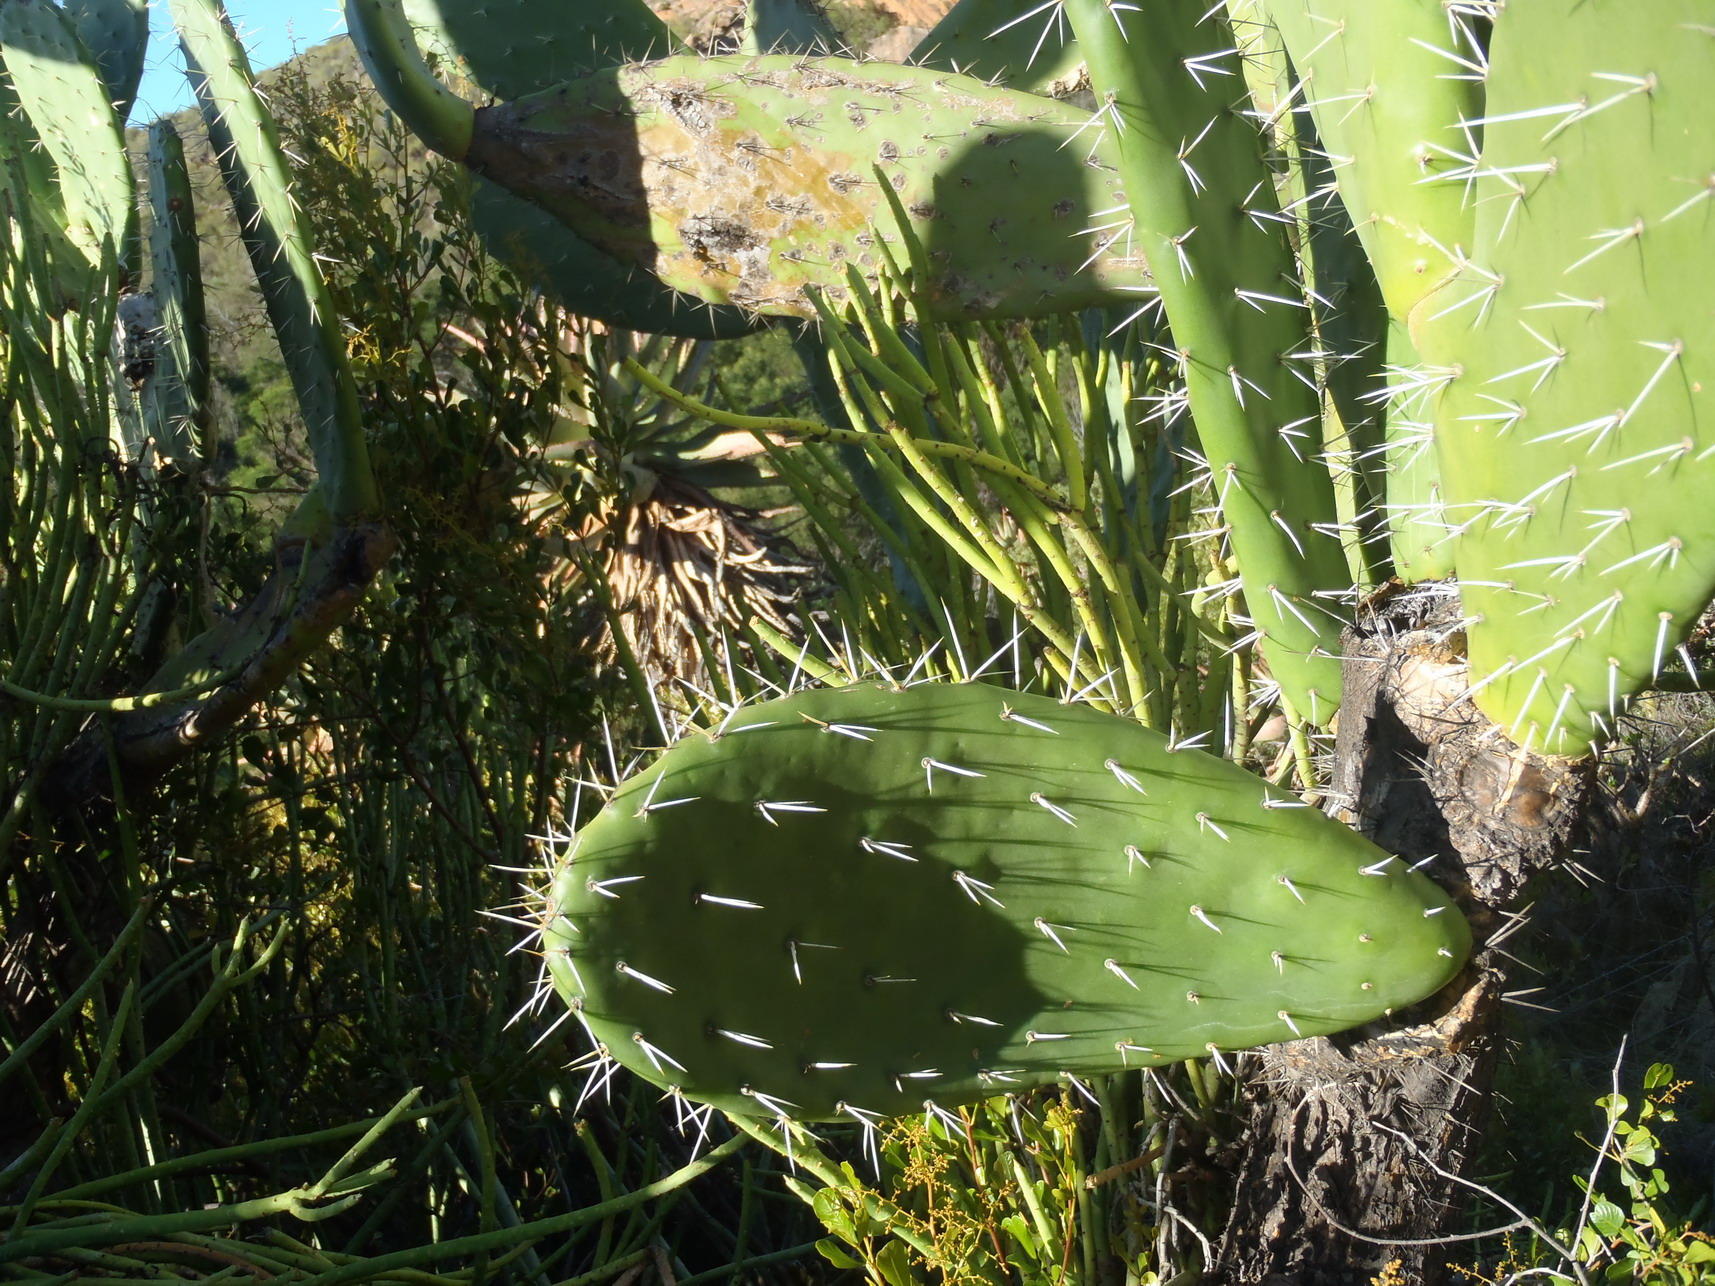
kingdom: Plantae
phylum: Tracheophyta
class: Magnoliopsida
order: Caryophyllales
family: Cactaceae
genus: Opuntia
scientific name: Opuntia ficus-indica
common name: Barbary fig
